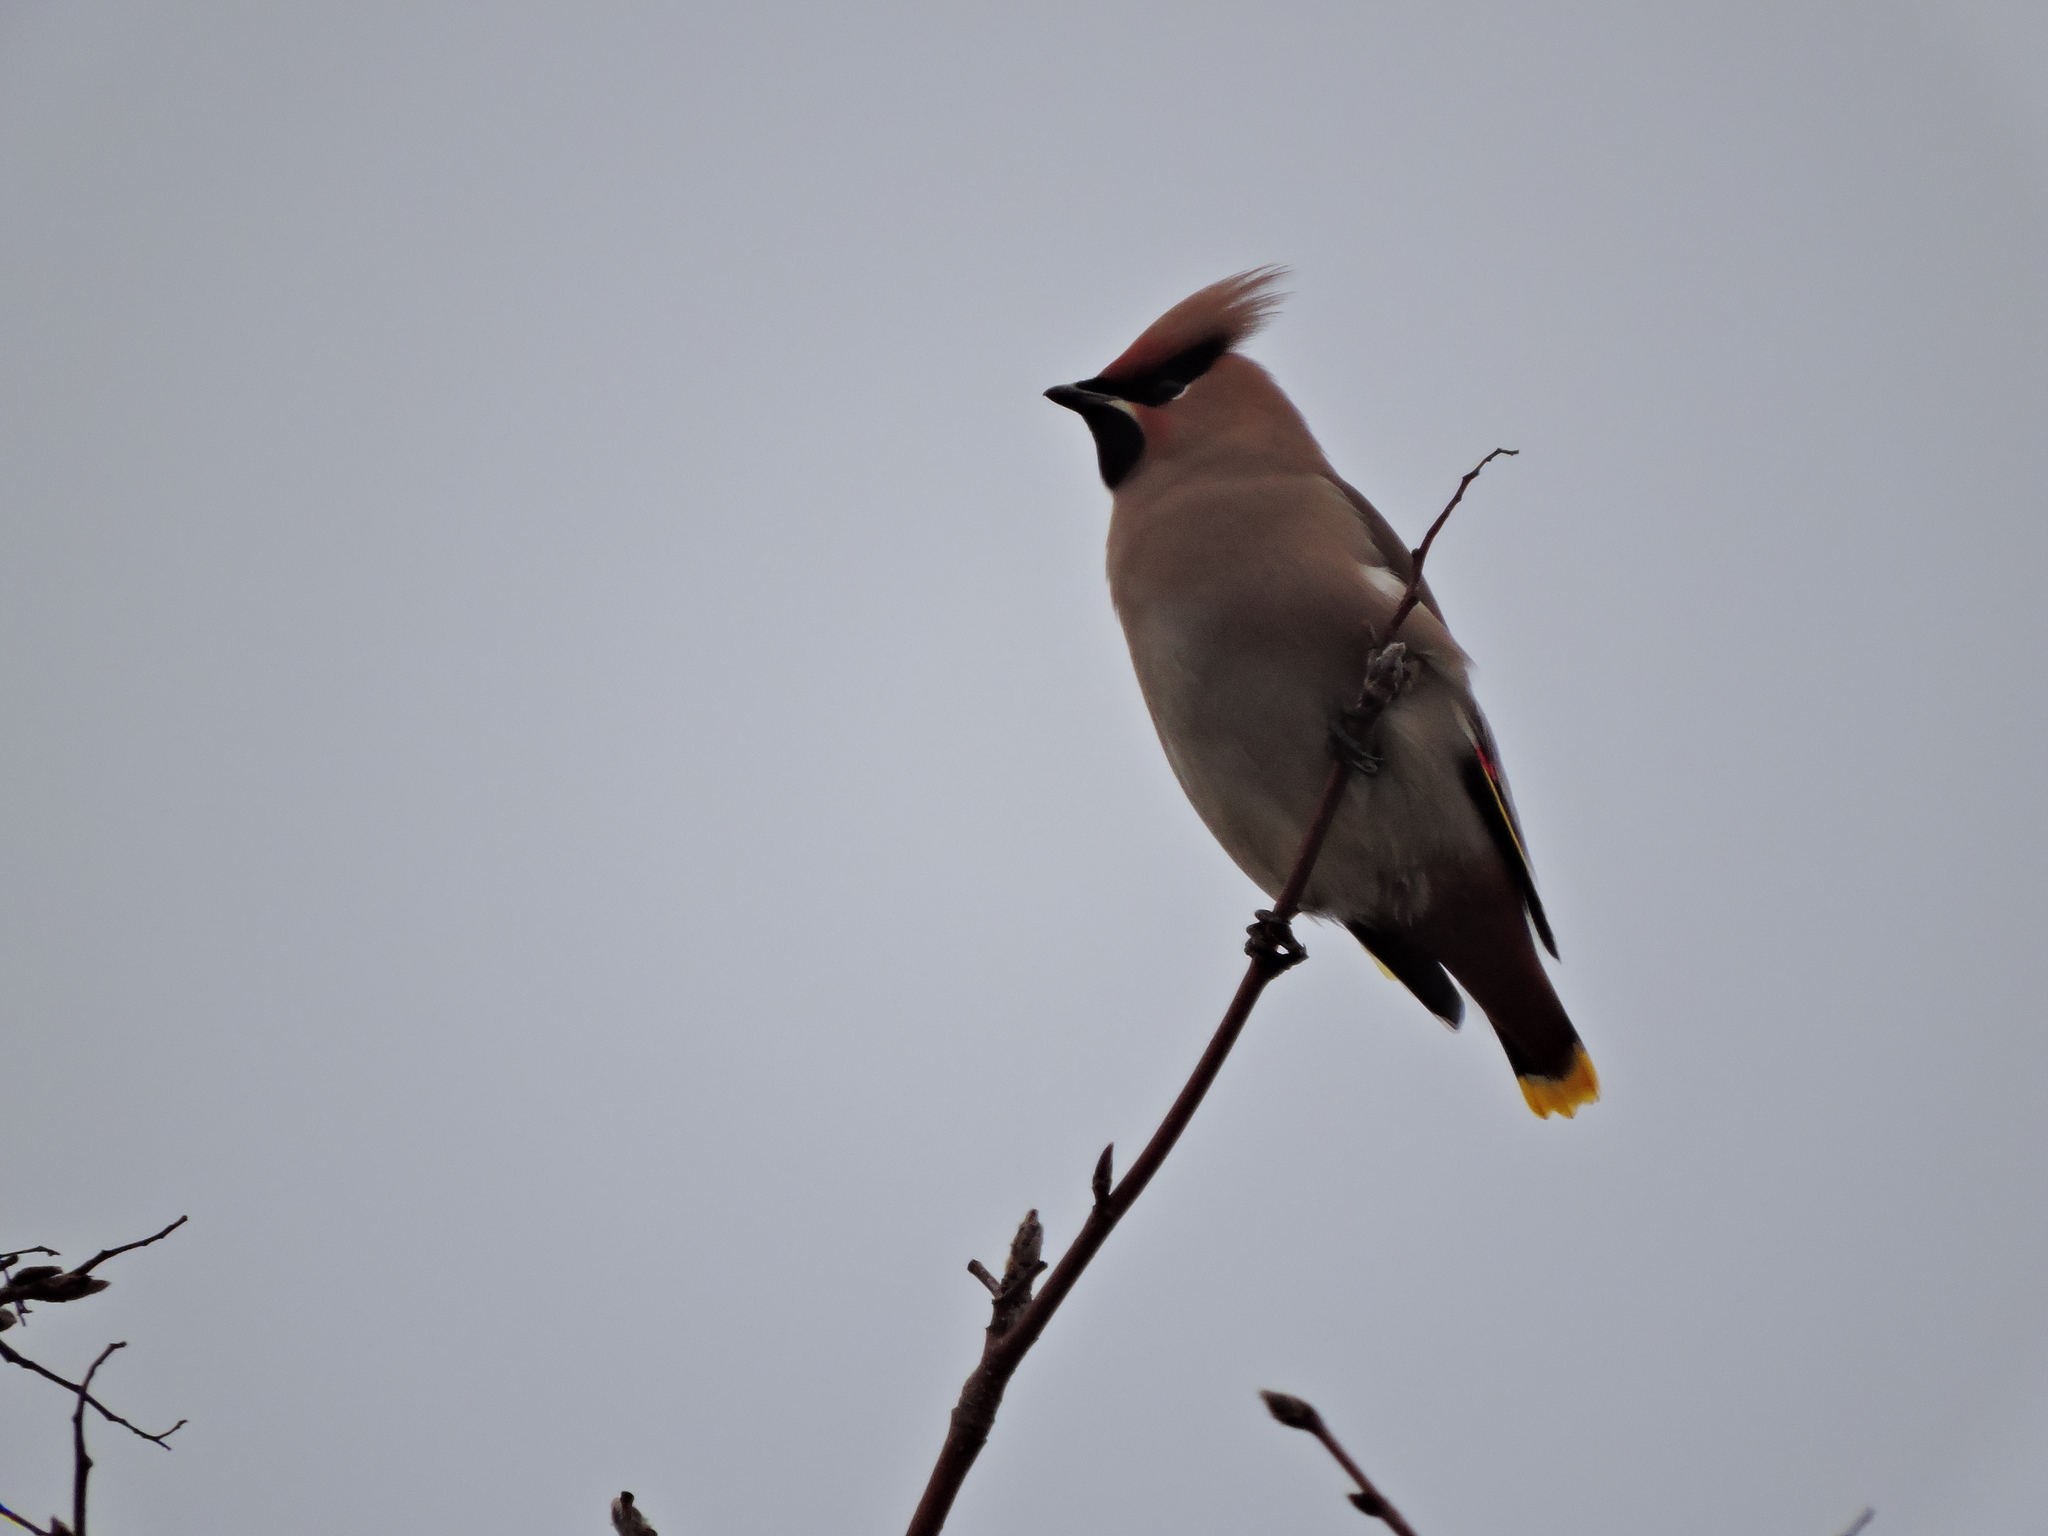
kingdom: Animalia
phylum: Chordata
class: Aves
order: Passeriformes
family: Bombycillidae
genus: Bombycilla
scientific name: Bombycilla garrulus
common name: Bohemian waxwing
